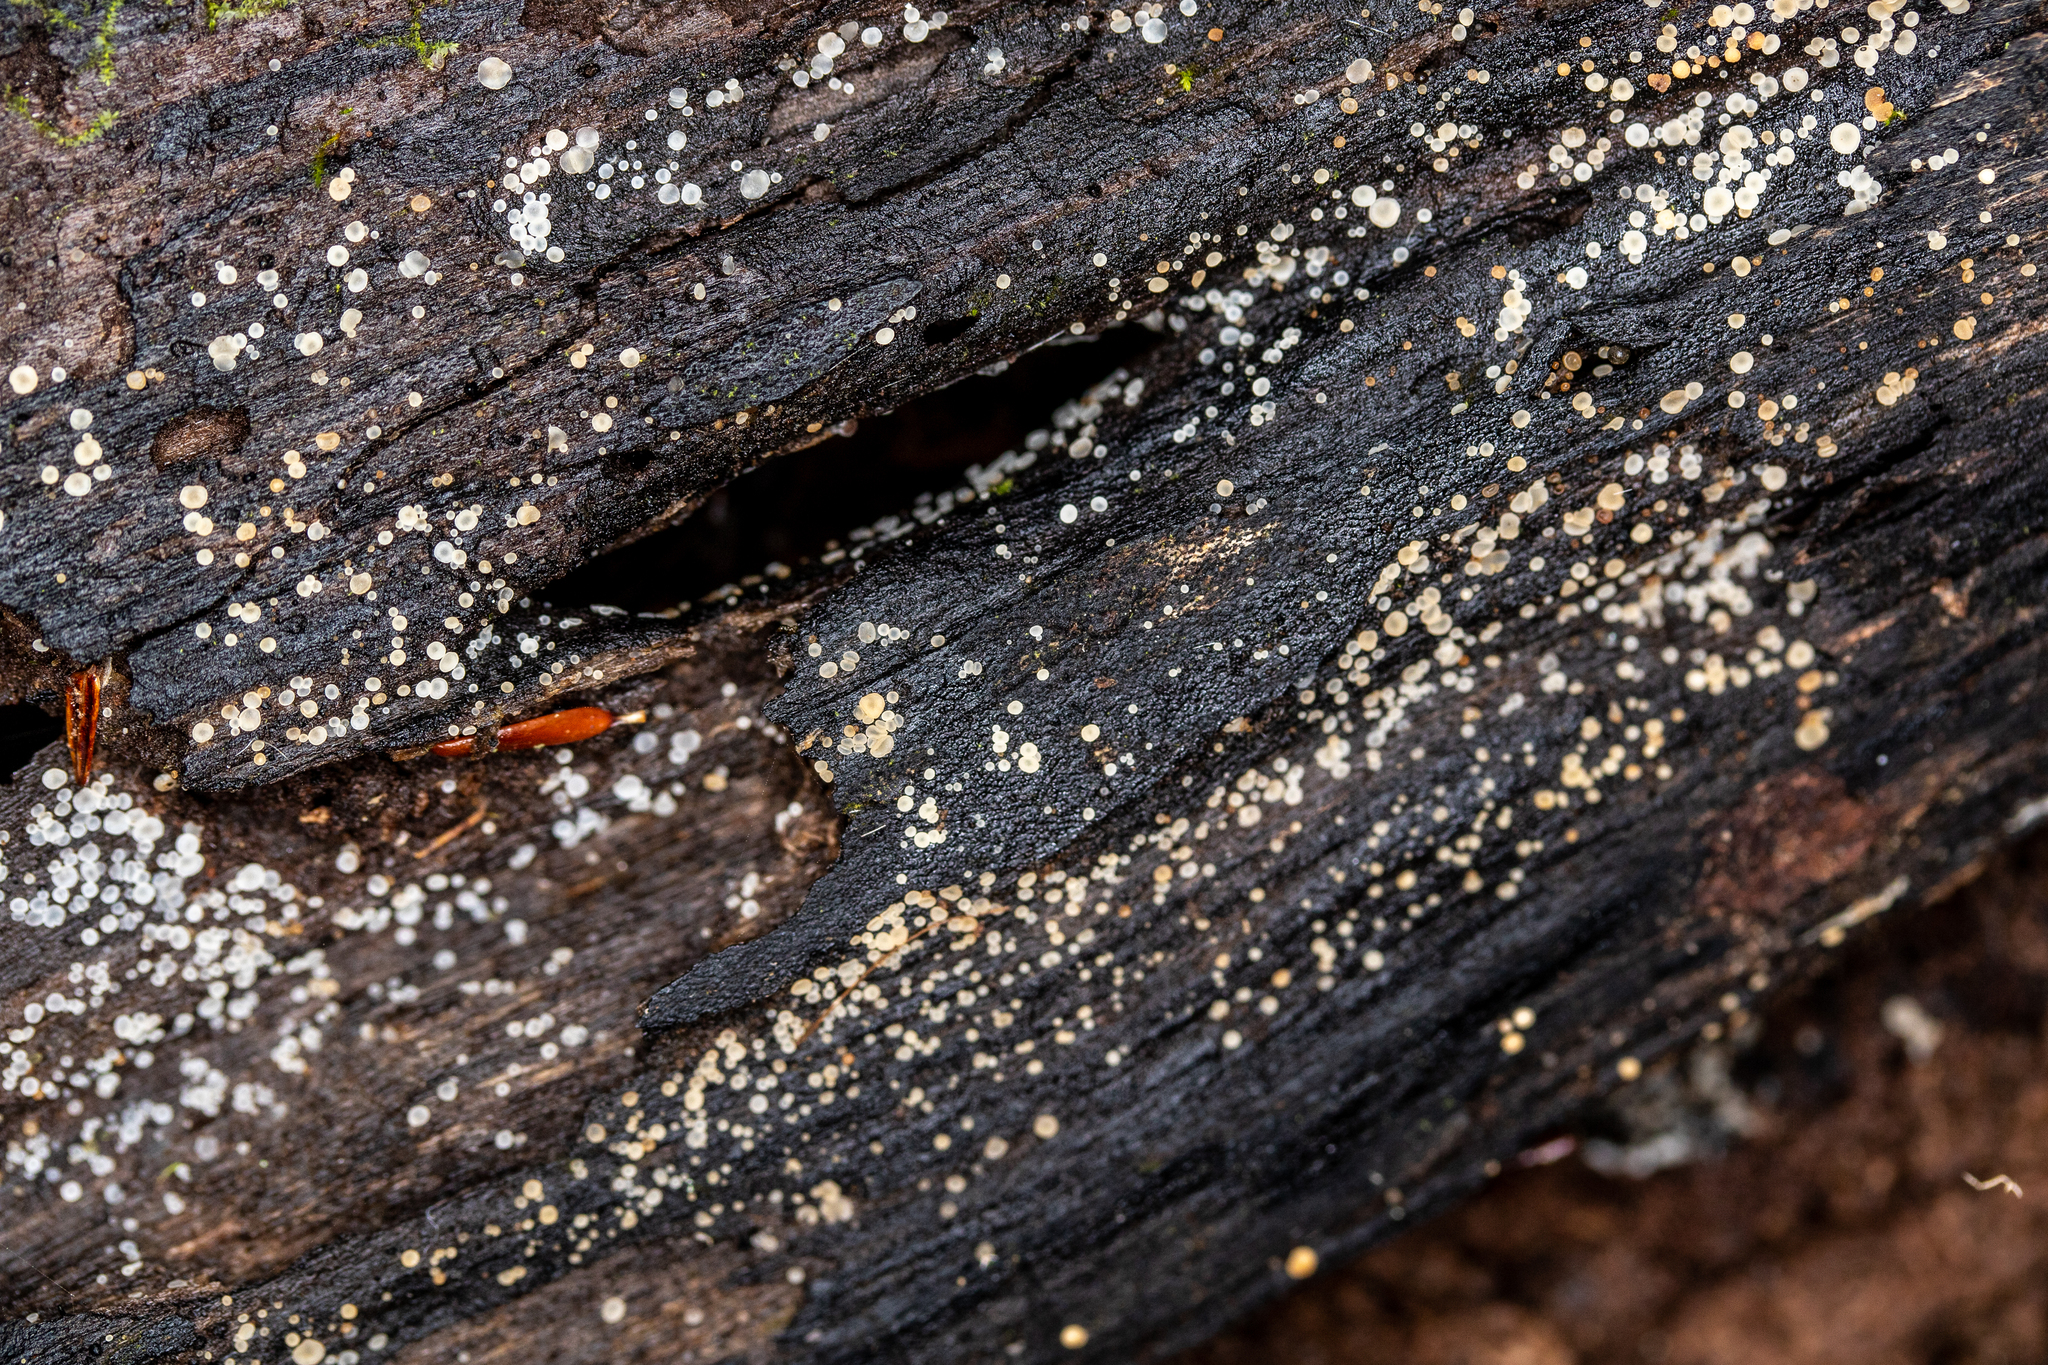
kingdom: Fungi
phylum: Ascomycota
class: Leotiomycetes
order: Helotiales
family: Mollisiaceae
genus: Mollisia
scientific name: Mollisia cinerea
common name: Common grey disco
